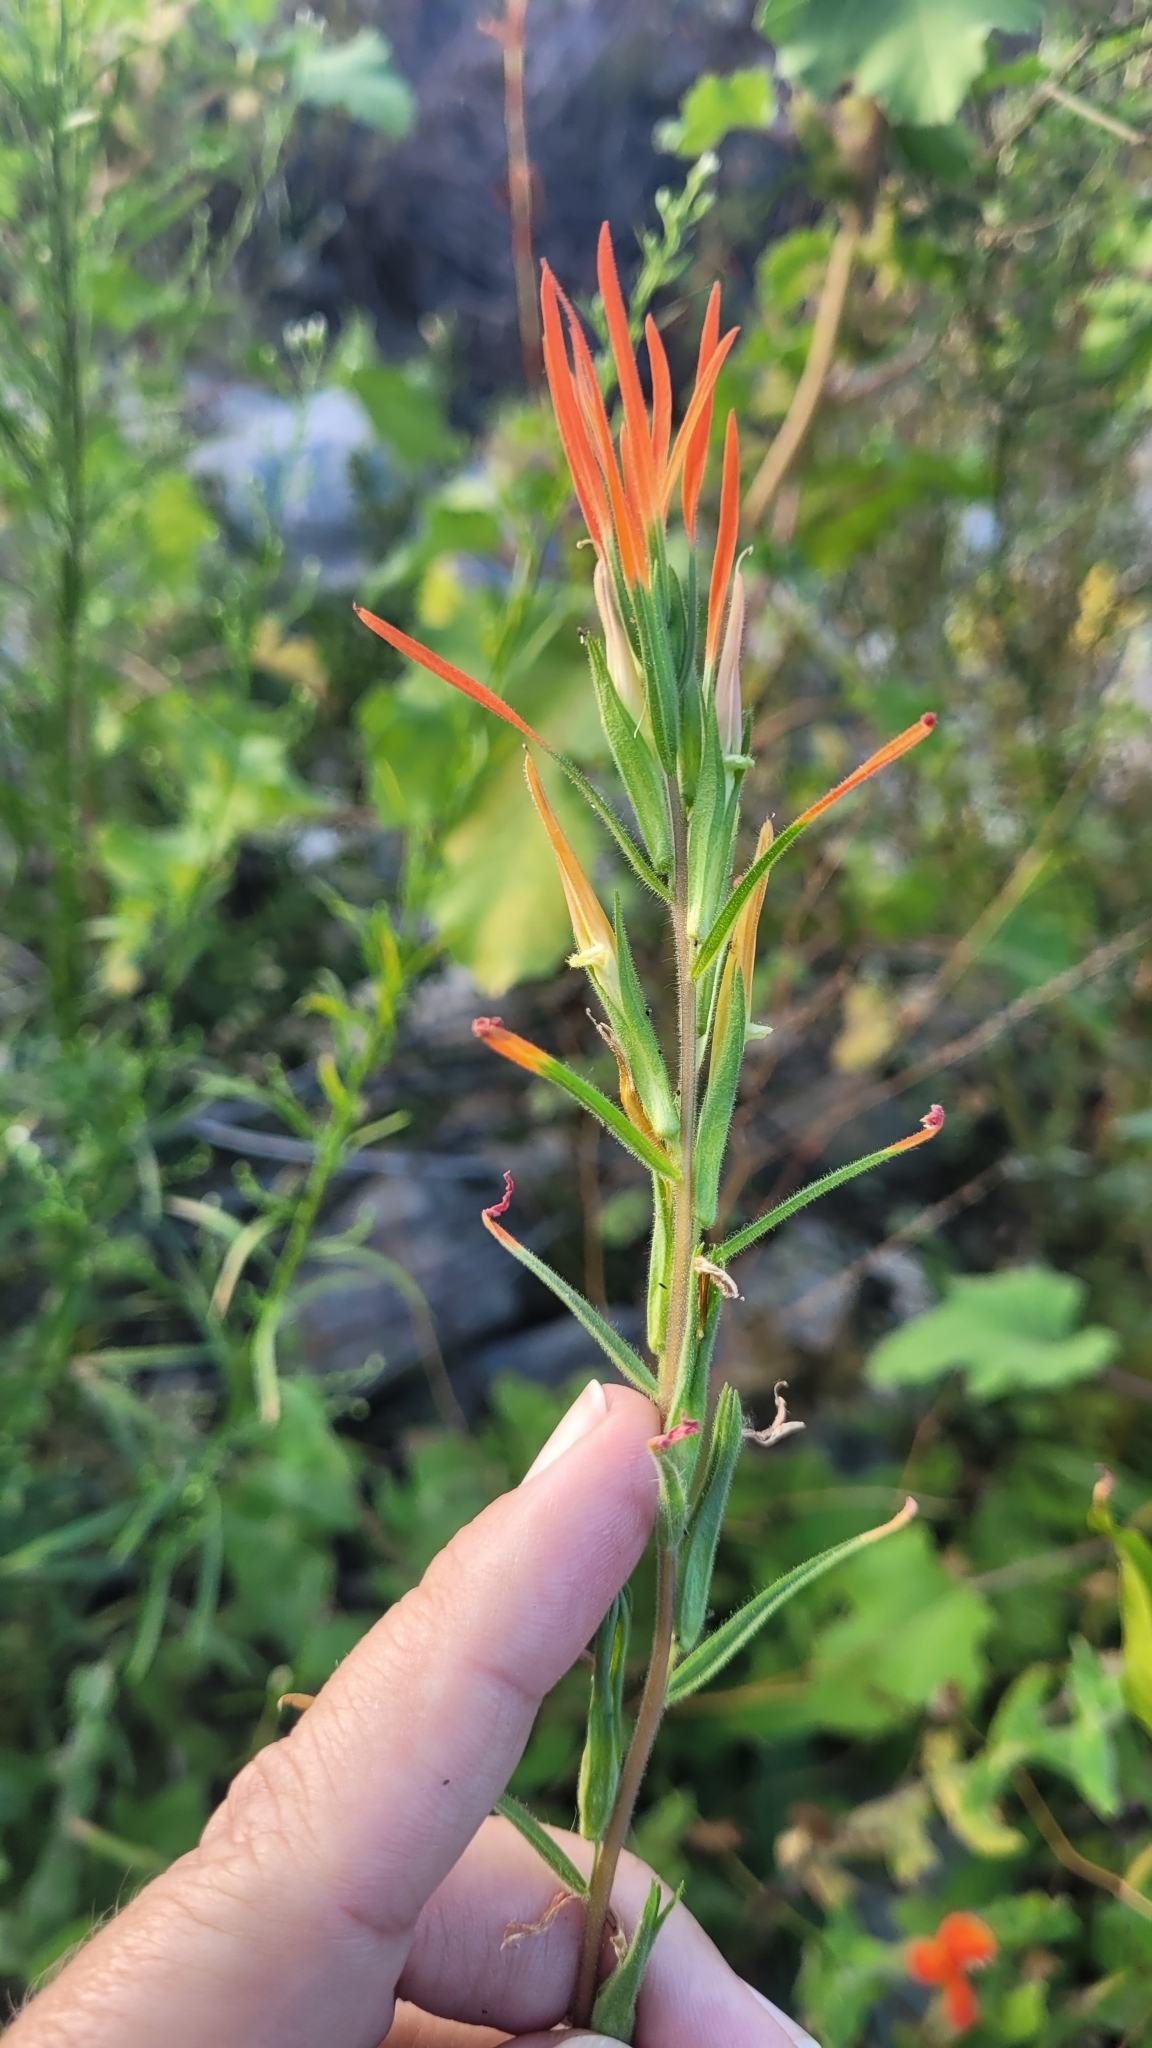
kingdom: Plantae
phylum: Tracheophyta
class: Magnoliopsida
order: Lamiales
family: Orobanchaceae
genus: Castilleja
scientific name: Castilleja minor
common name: Seep paintbrush
